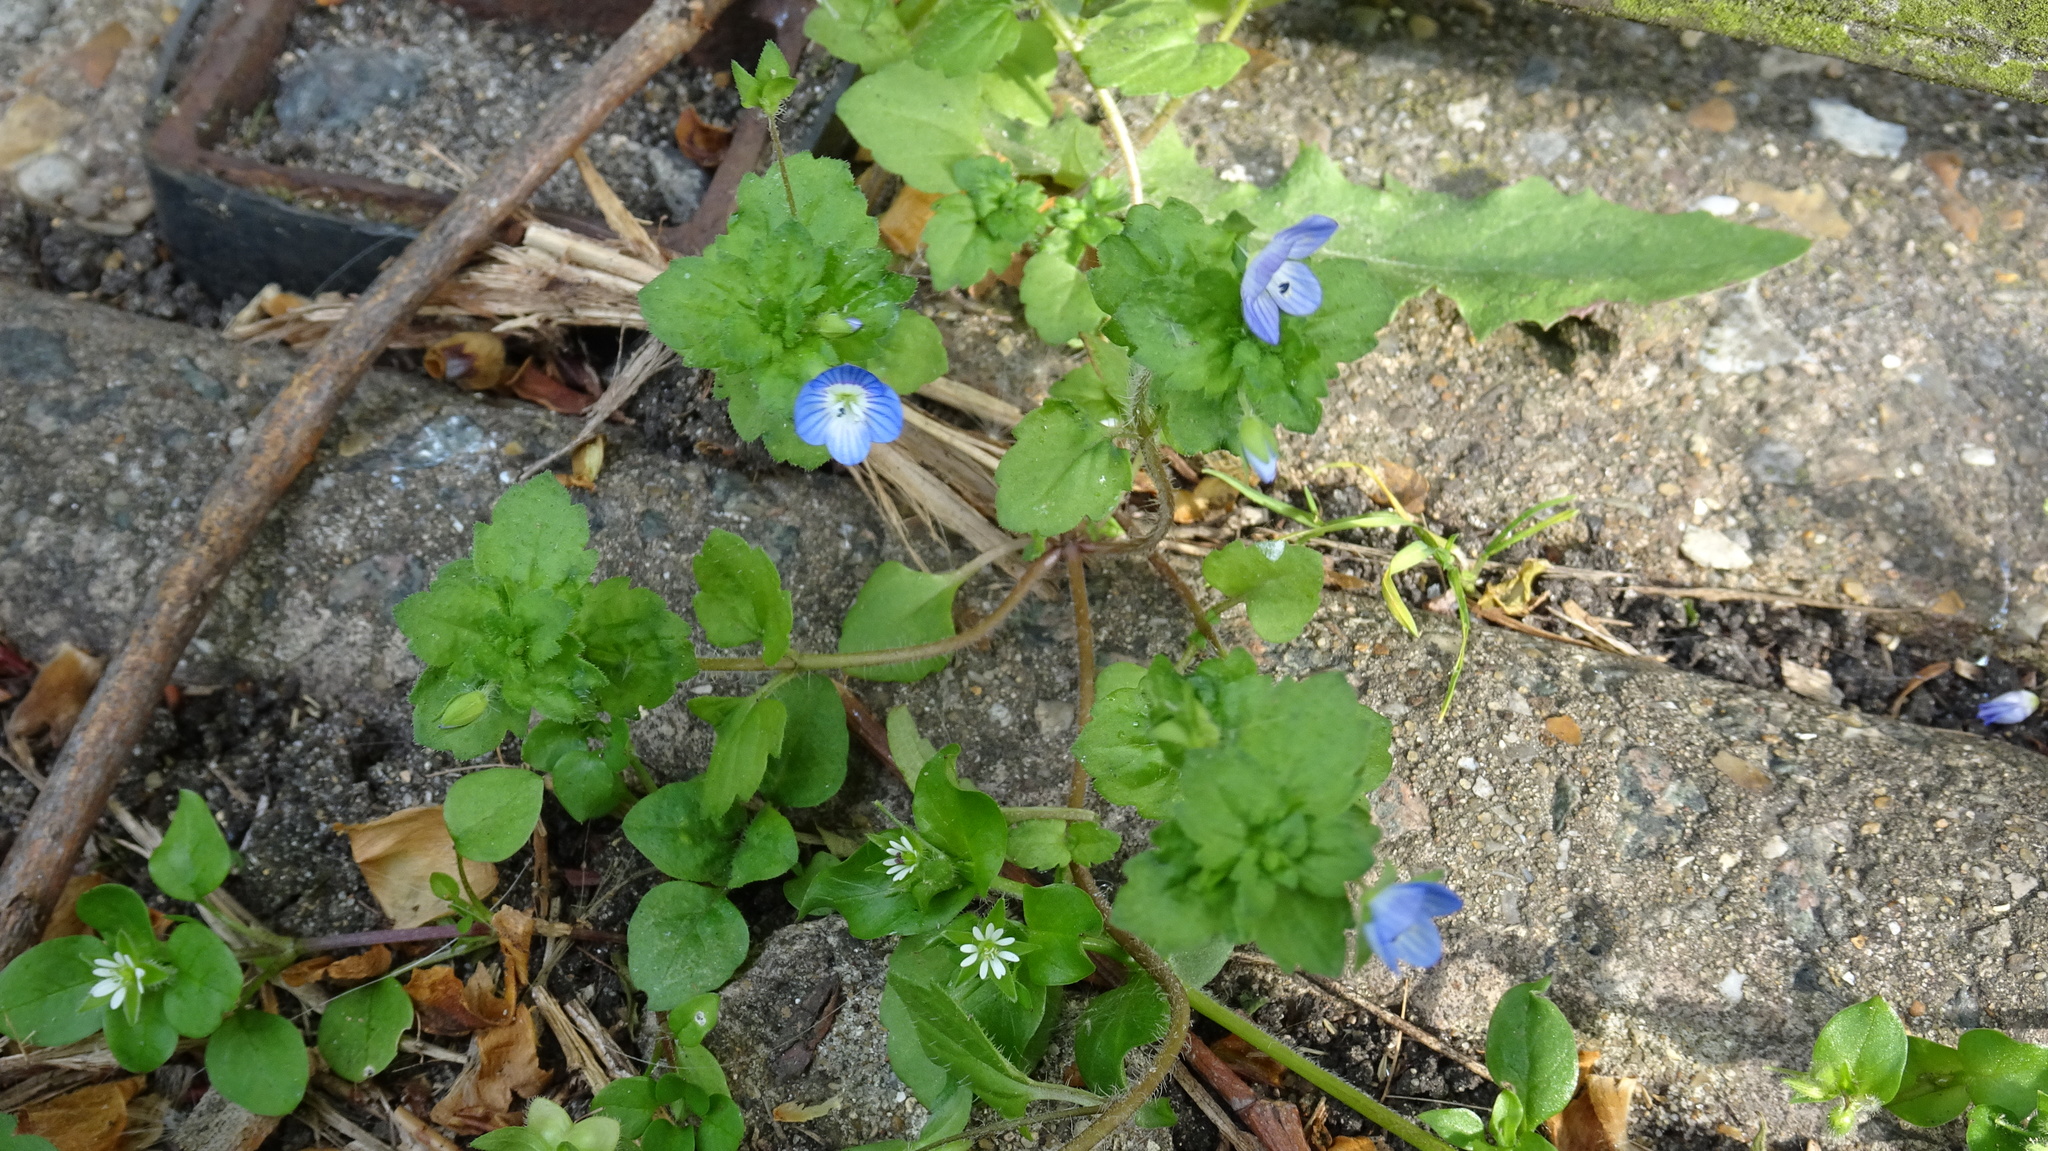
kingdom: Plantae
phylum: Tracheophyta
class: Magnoliopsida
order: Lamiales
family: Plantaginaceae
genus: Veronica
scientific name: Veronica persica
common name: Common field-speedwell
